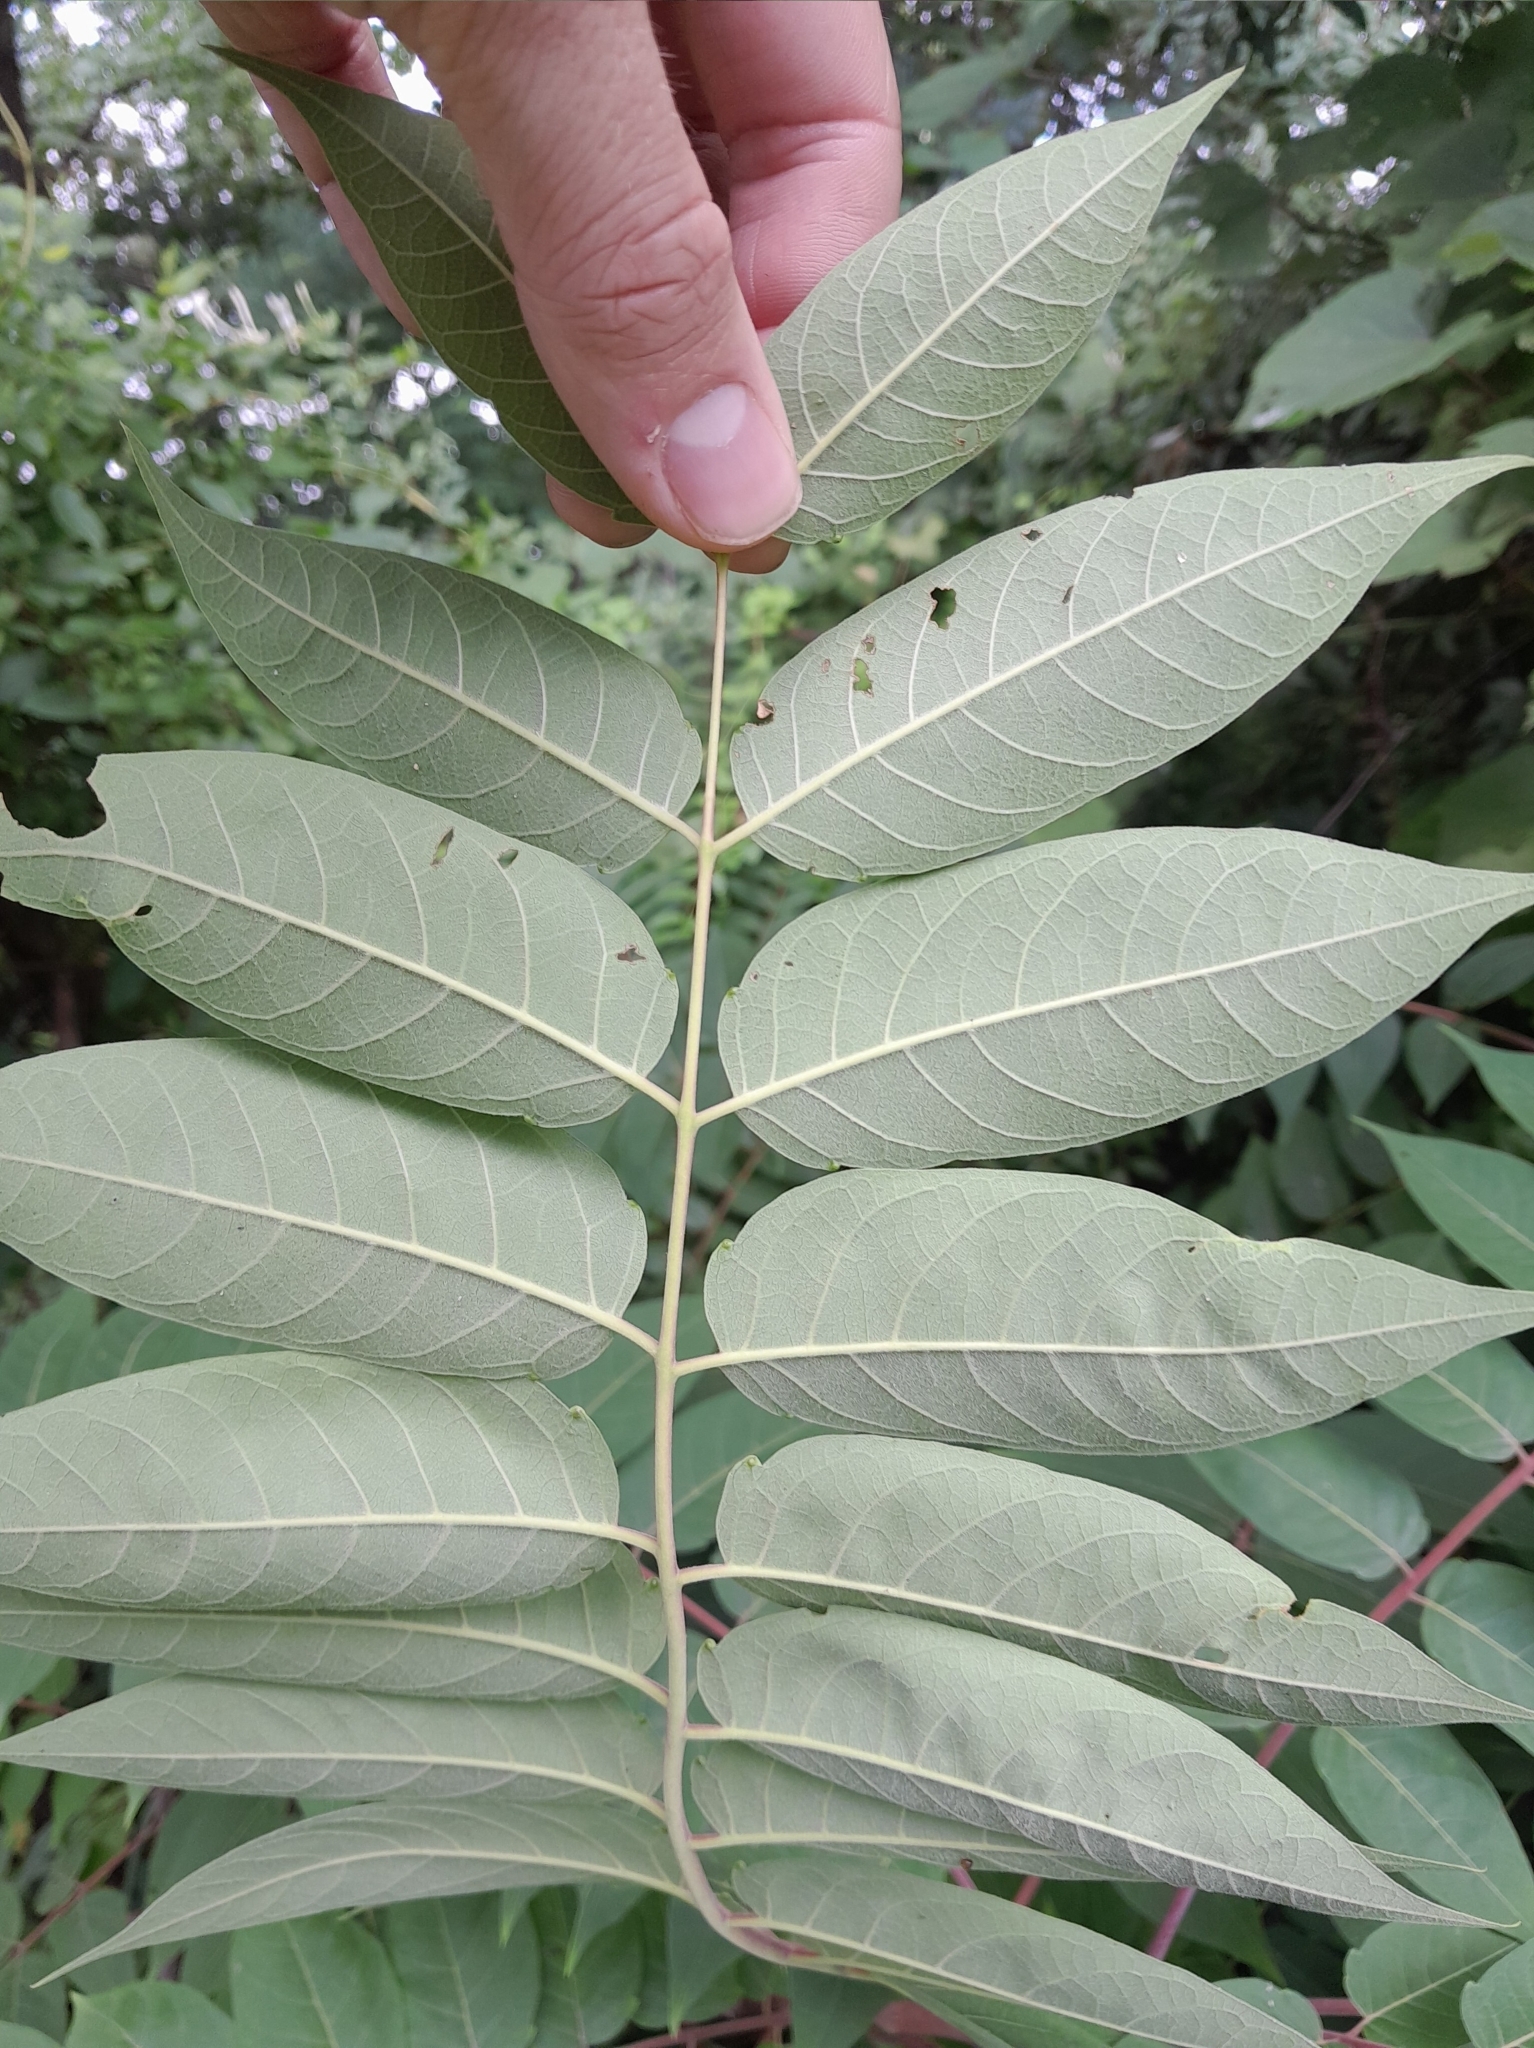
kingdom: Plantae
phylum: Tracheophyta
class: Magnoliopsida
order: Sapindales
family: Simaroubaceae
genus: Ailanthus
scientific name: Ailanthus altissima
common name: Tree-of-heaven
